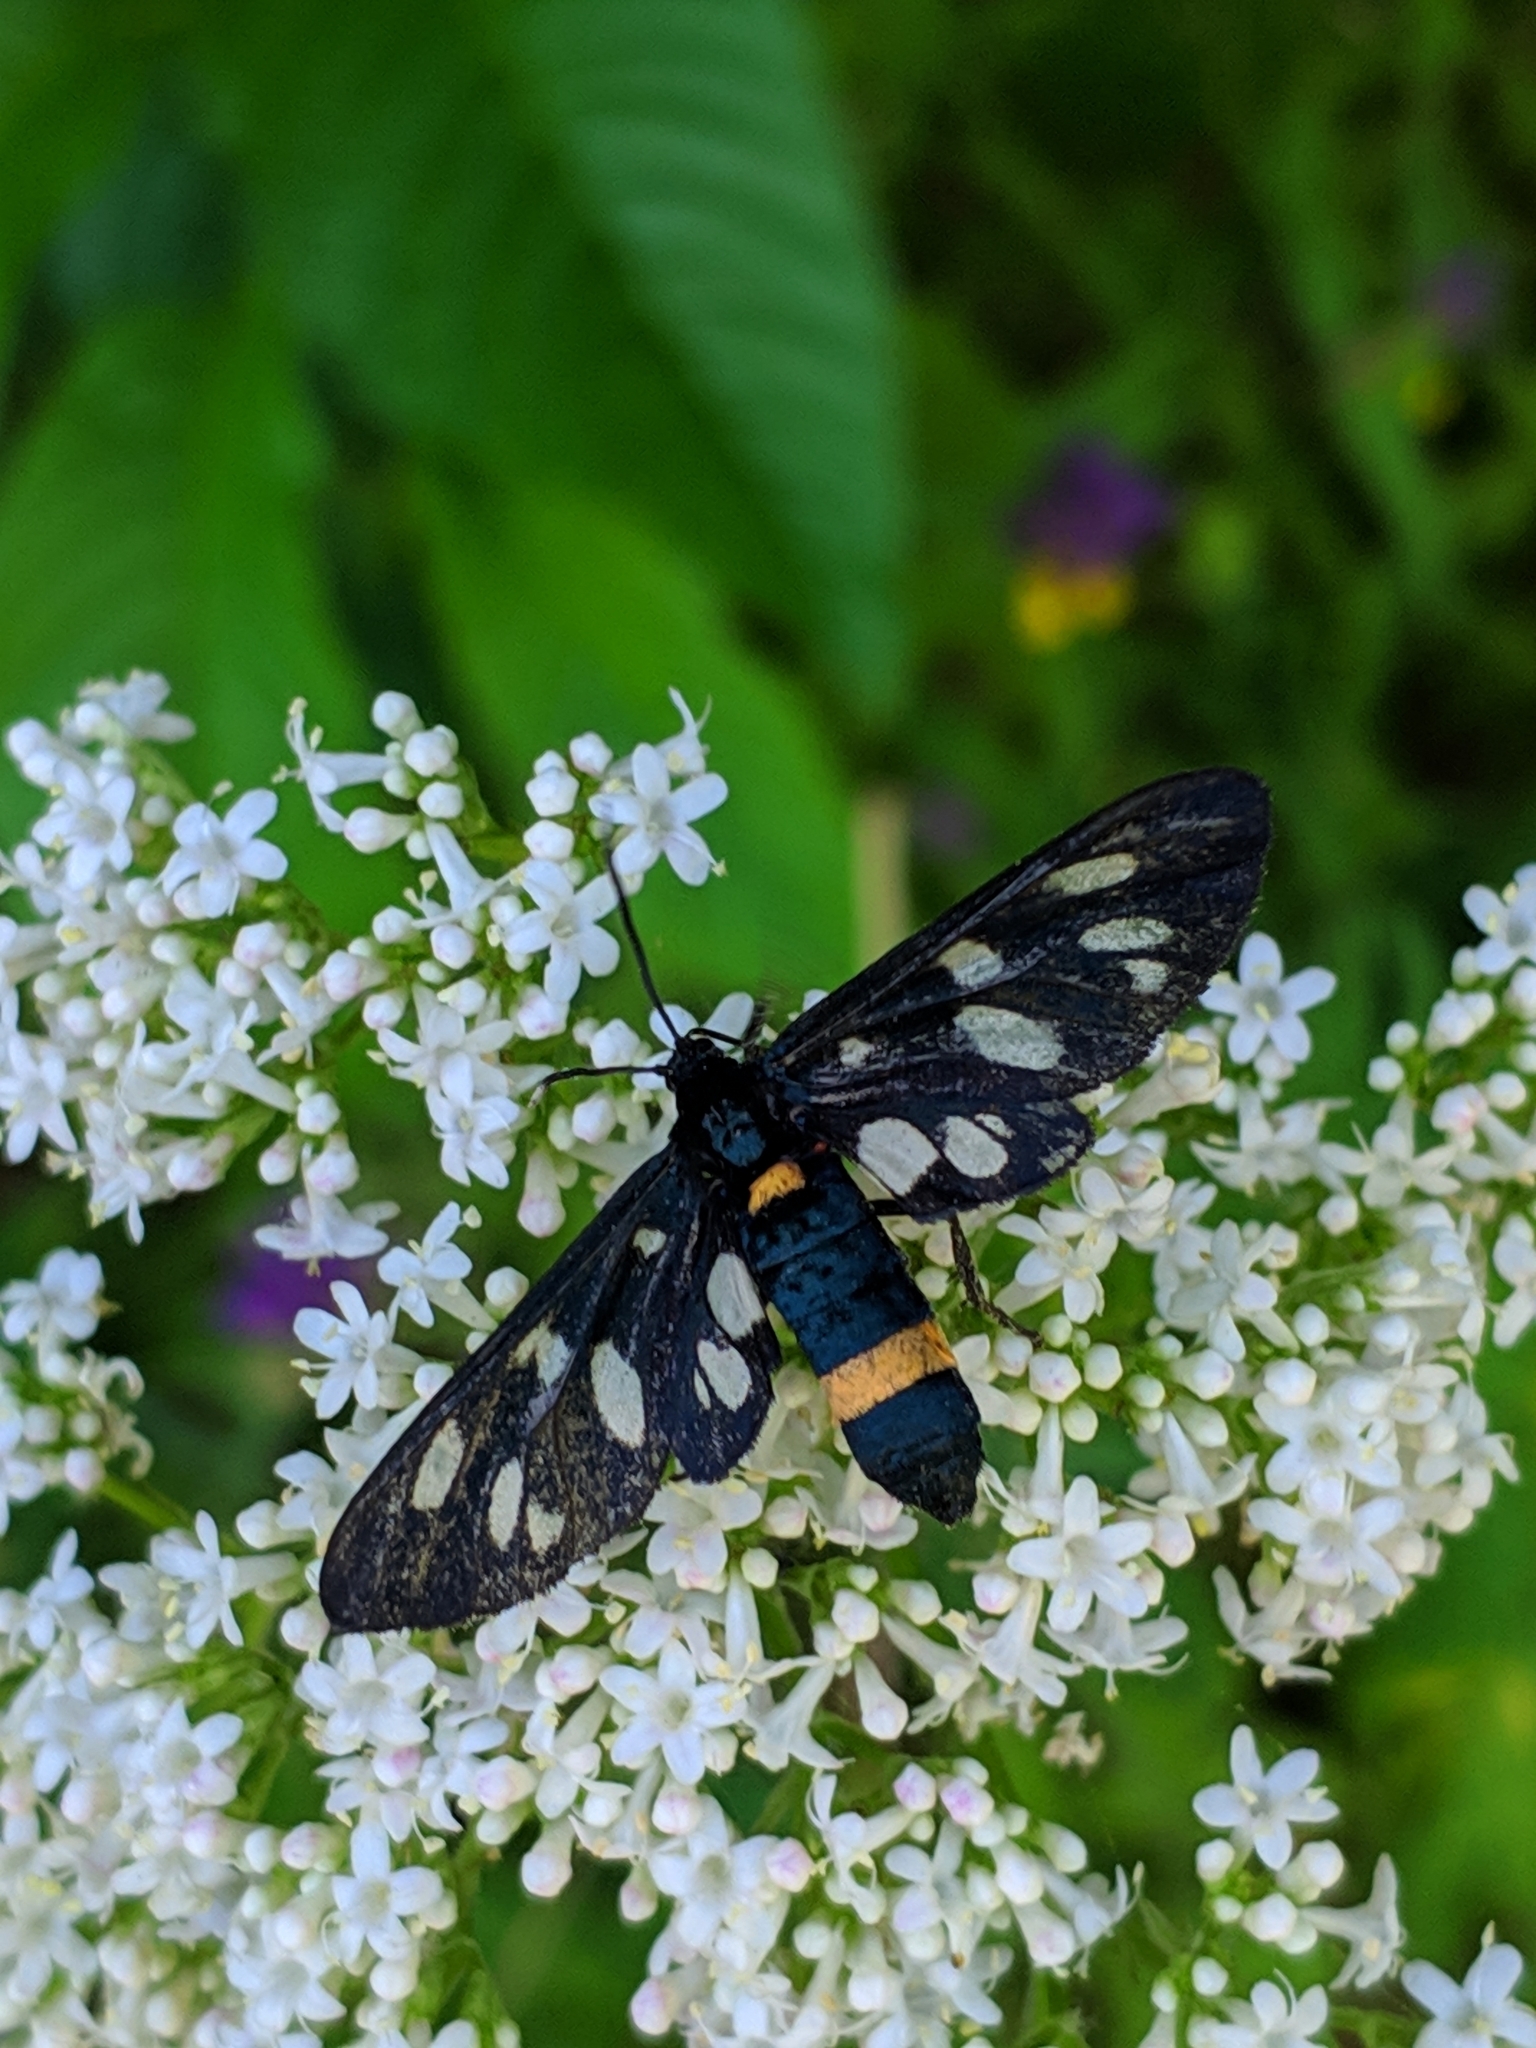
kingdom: Animalia
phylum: Arthropoda
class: Insecta
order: Lepidoptera
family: Erebidae
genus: Amata
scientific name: Amata phegea
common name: Nine-spotted
